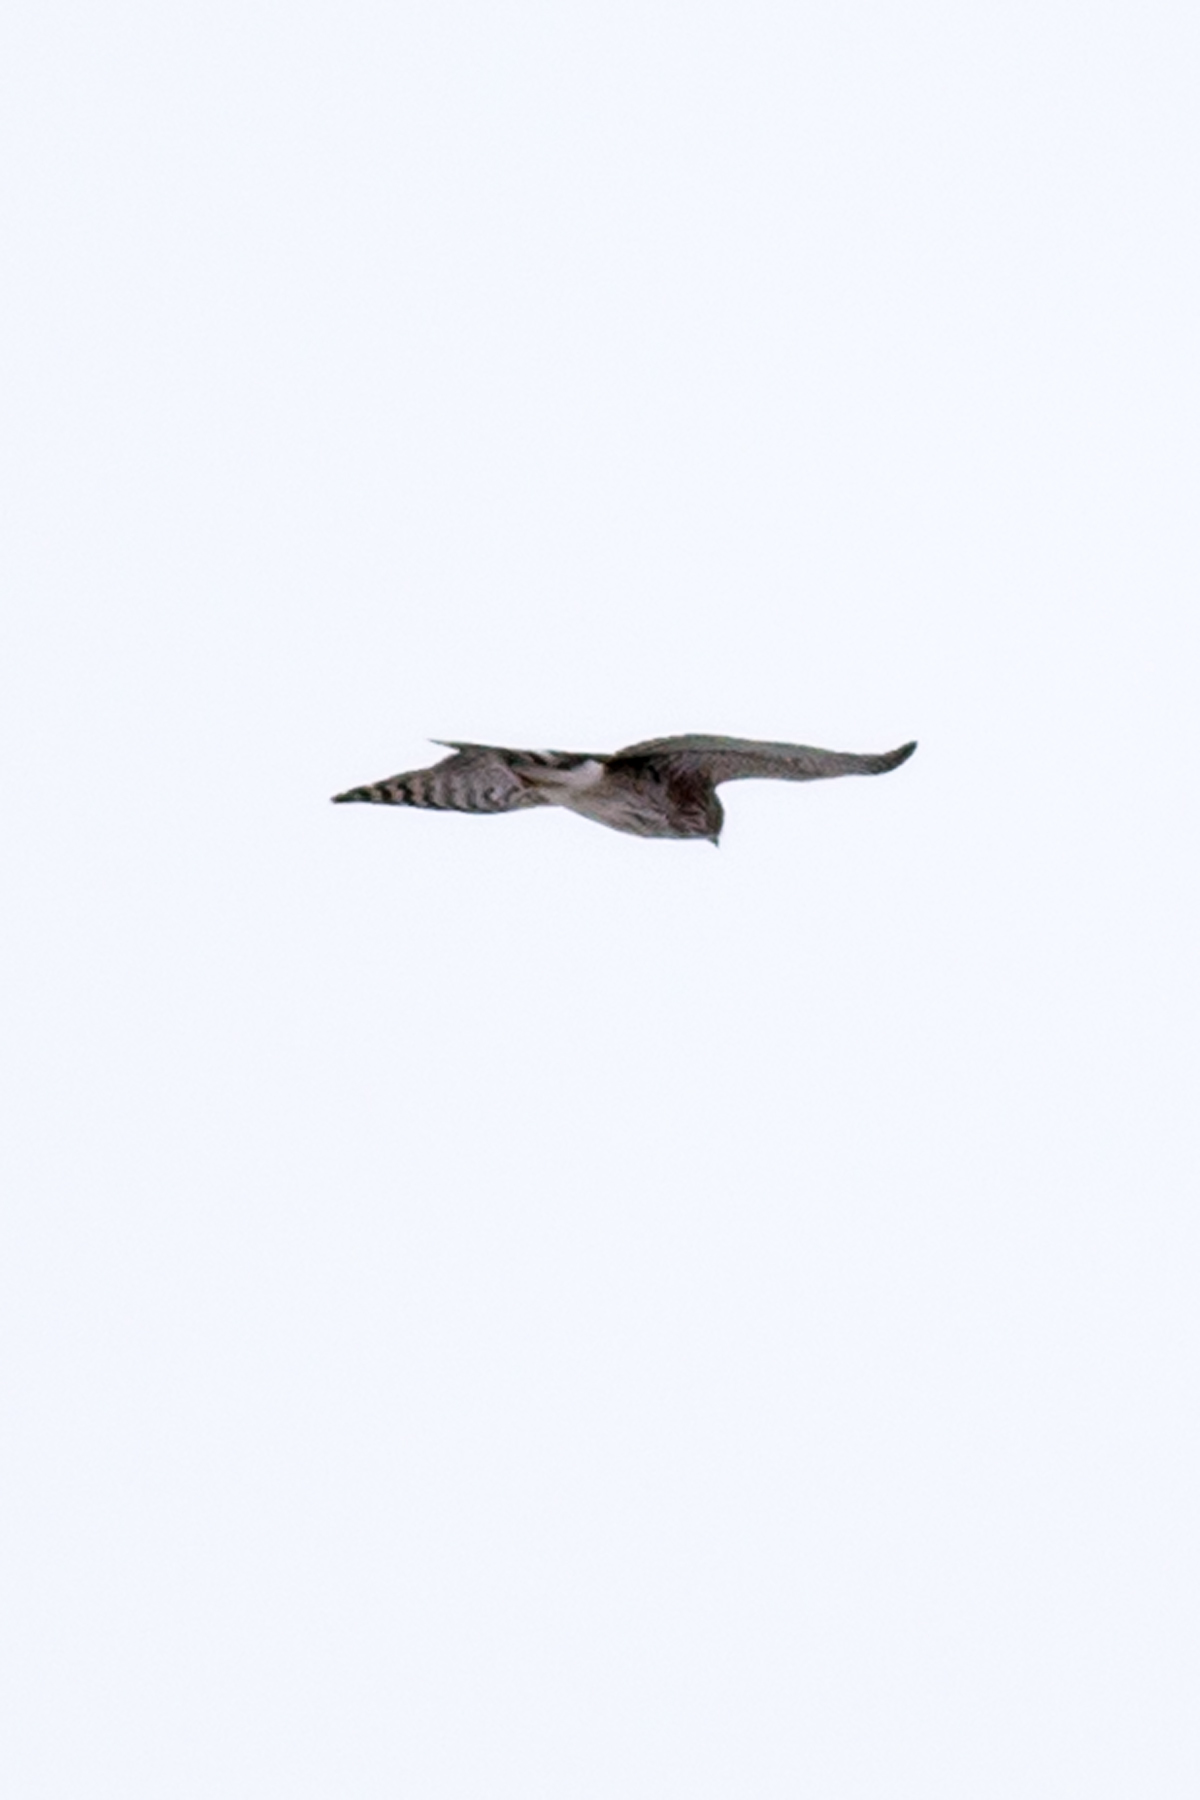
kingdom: Animalia
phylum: Chordata
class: Aves
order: Accipitriformes
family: Accipitridae
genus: Accipiter
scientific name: Accipiter cooperii
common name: Cooper's hawk
